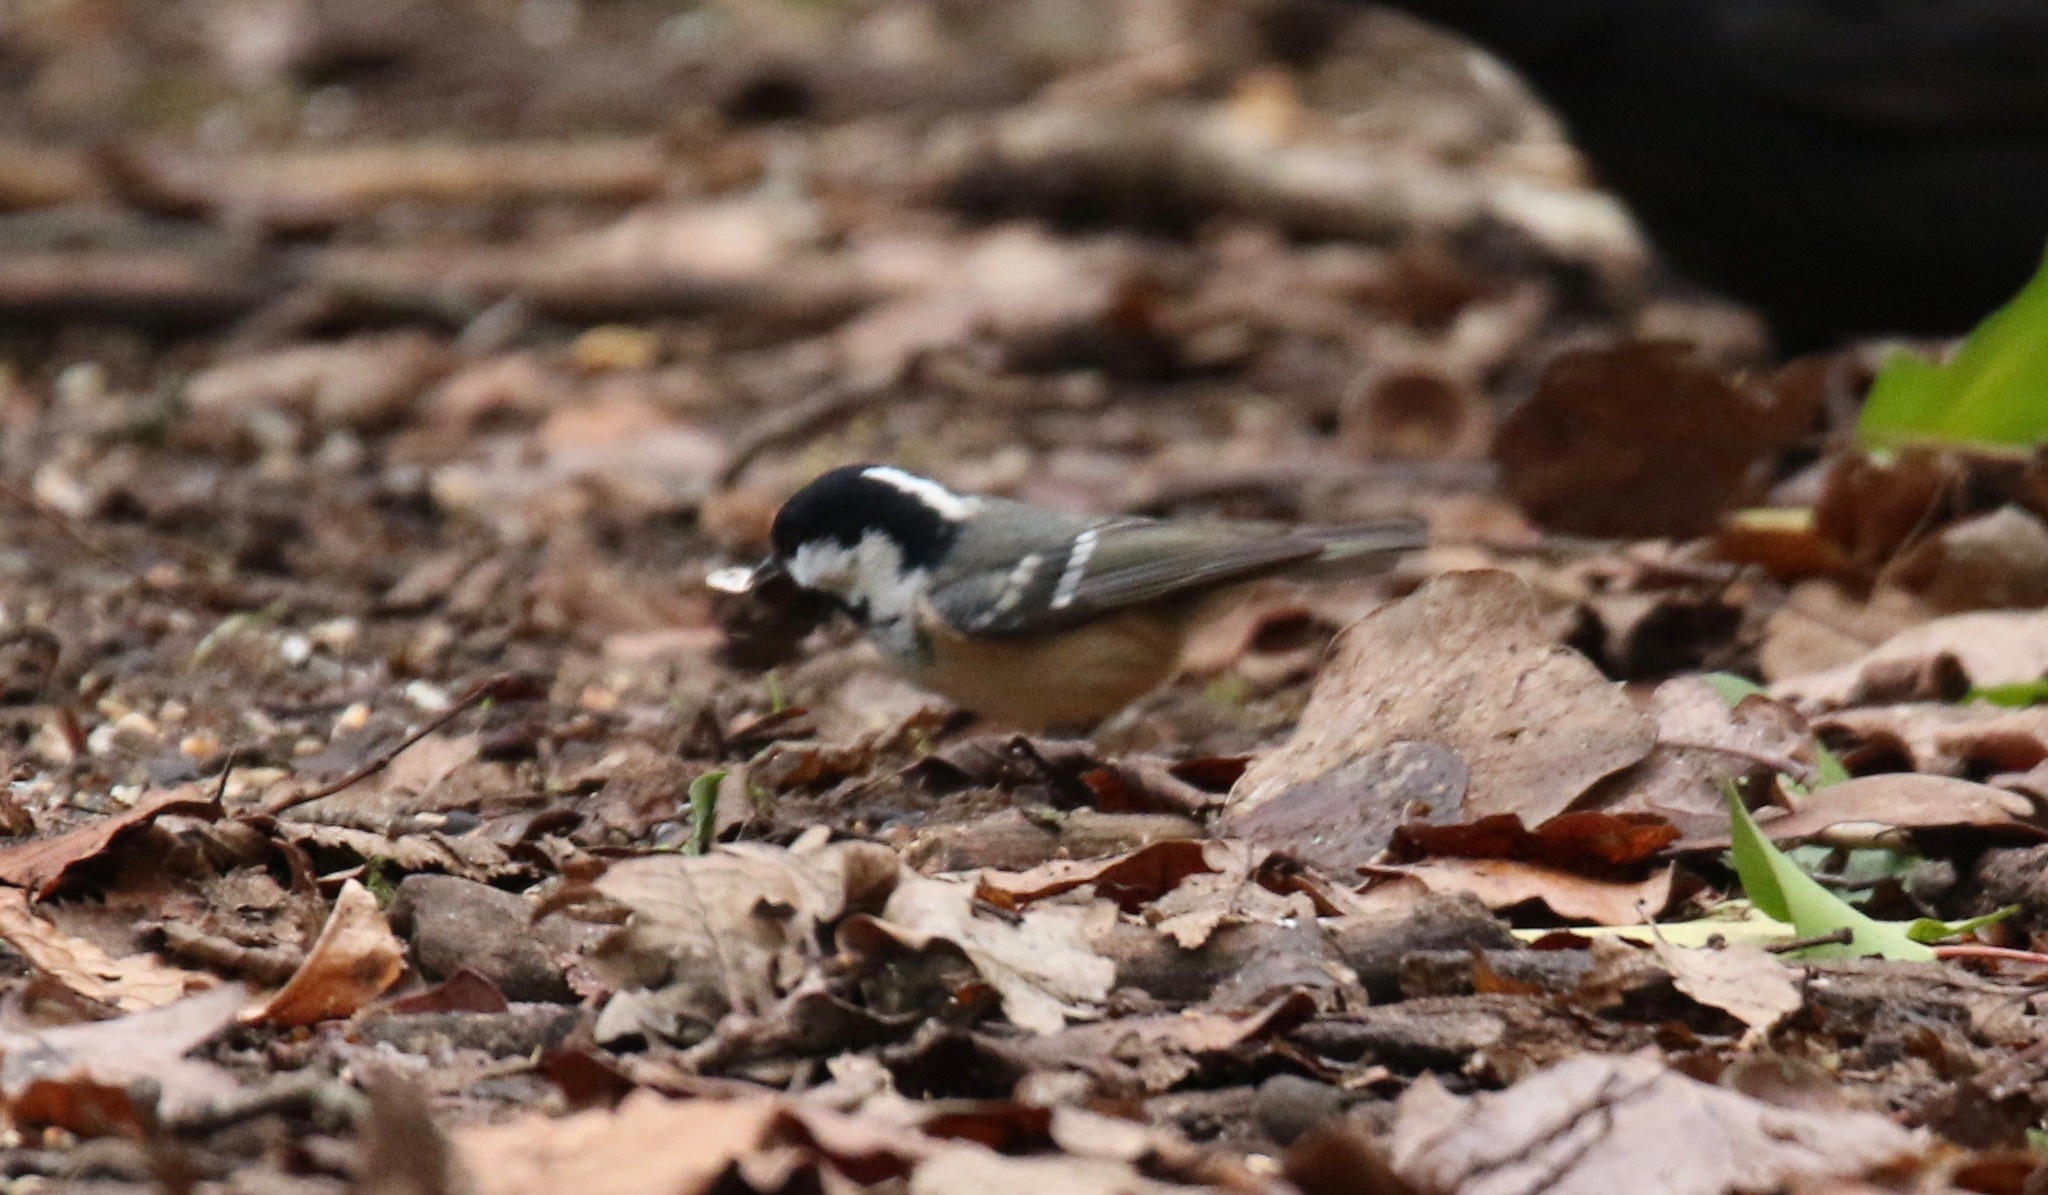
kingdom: Animalia
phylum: Chordata
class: Aves
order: Passeriformes
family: Paridae
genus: Periparus
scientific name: Periparus ater
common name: Coal tit
